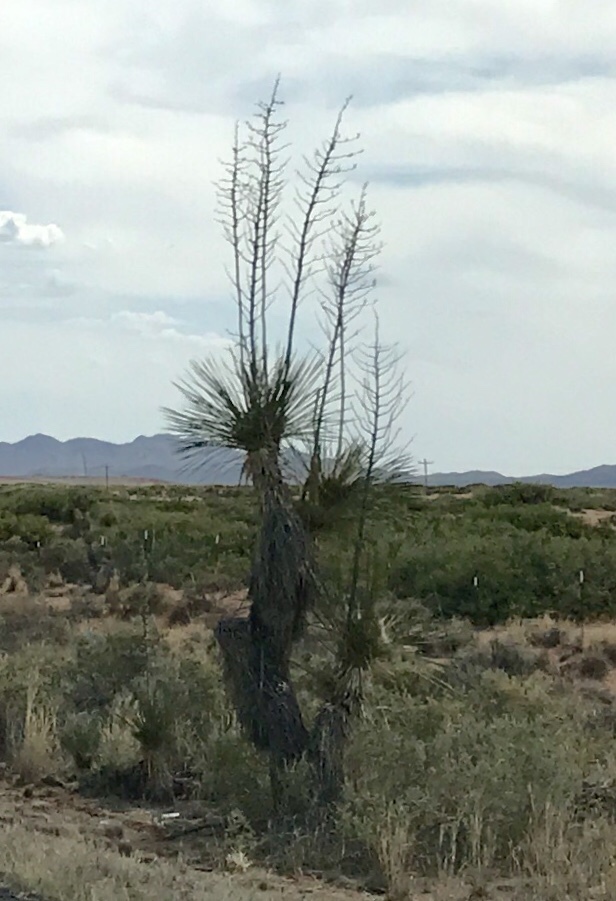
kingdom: Plantae
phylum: Tracheophyta
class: Liliopsida
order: Asparagales
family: Asparagaceae
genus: Yucca
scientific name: Yucca elata
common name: Palmella
